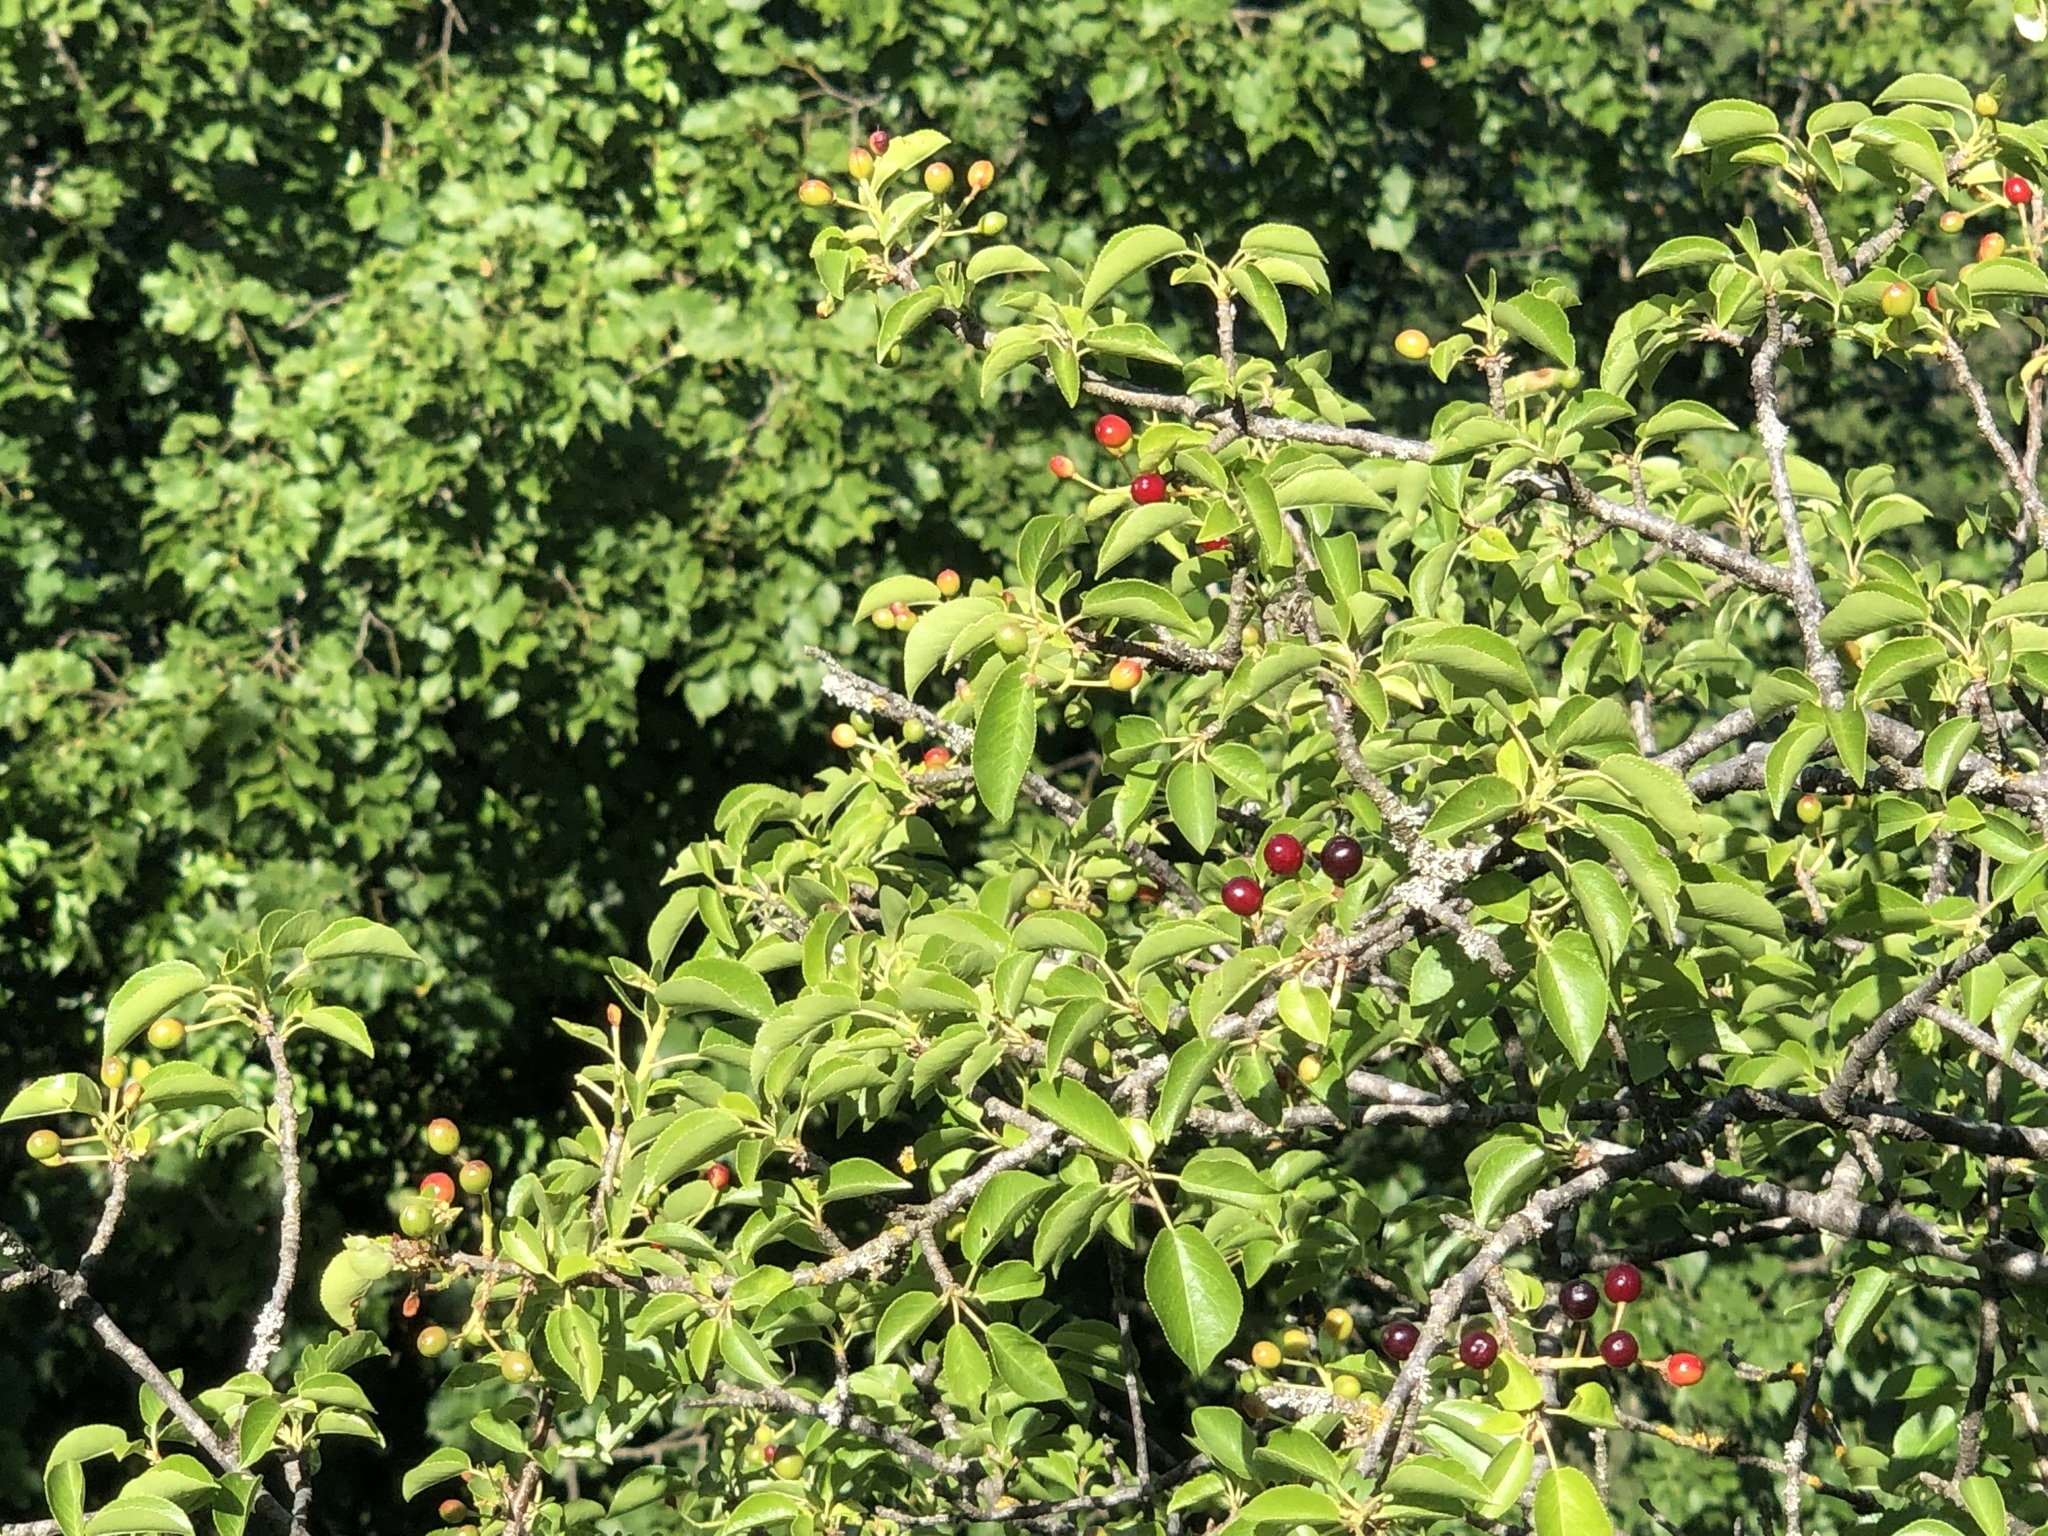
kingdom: Plantae
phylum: Tracheophyta
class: Magnoliopsida
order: Rosales
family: Rosaceae
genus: Prunus
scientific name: Prunus mahaleb
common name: Mahaleb cherry
